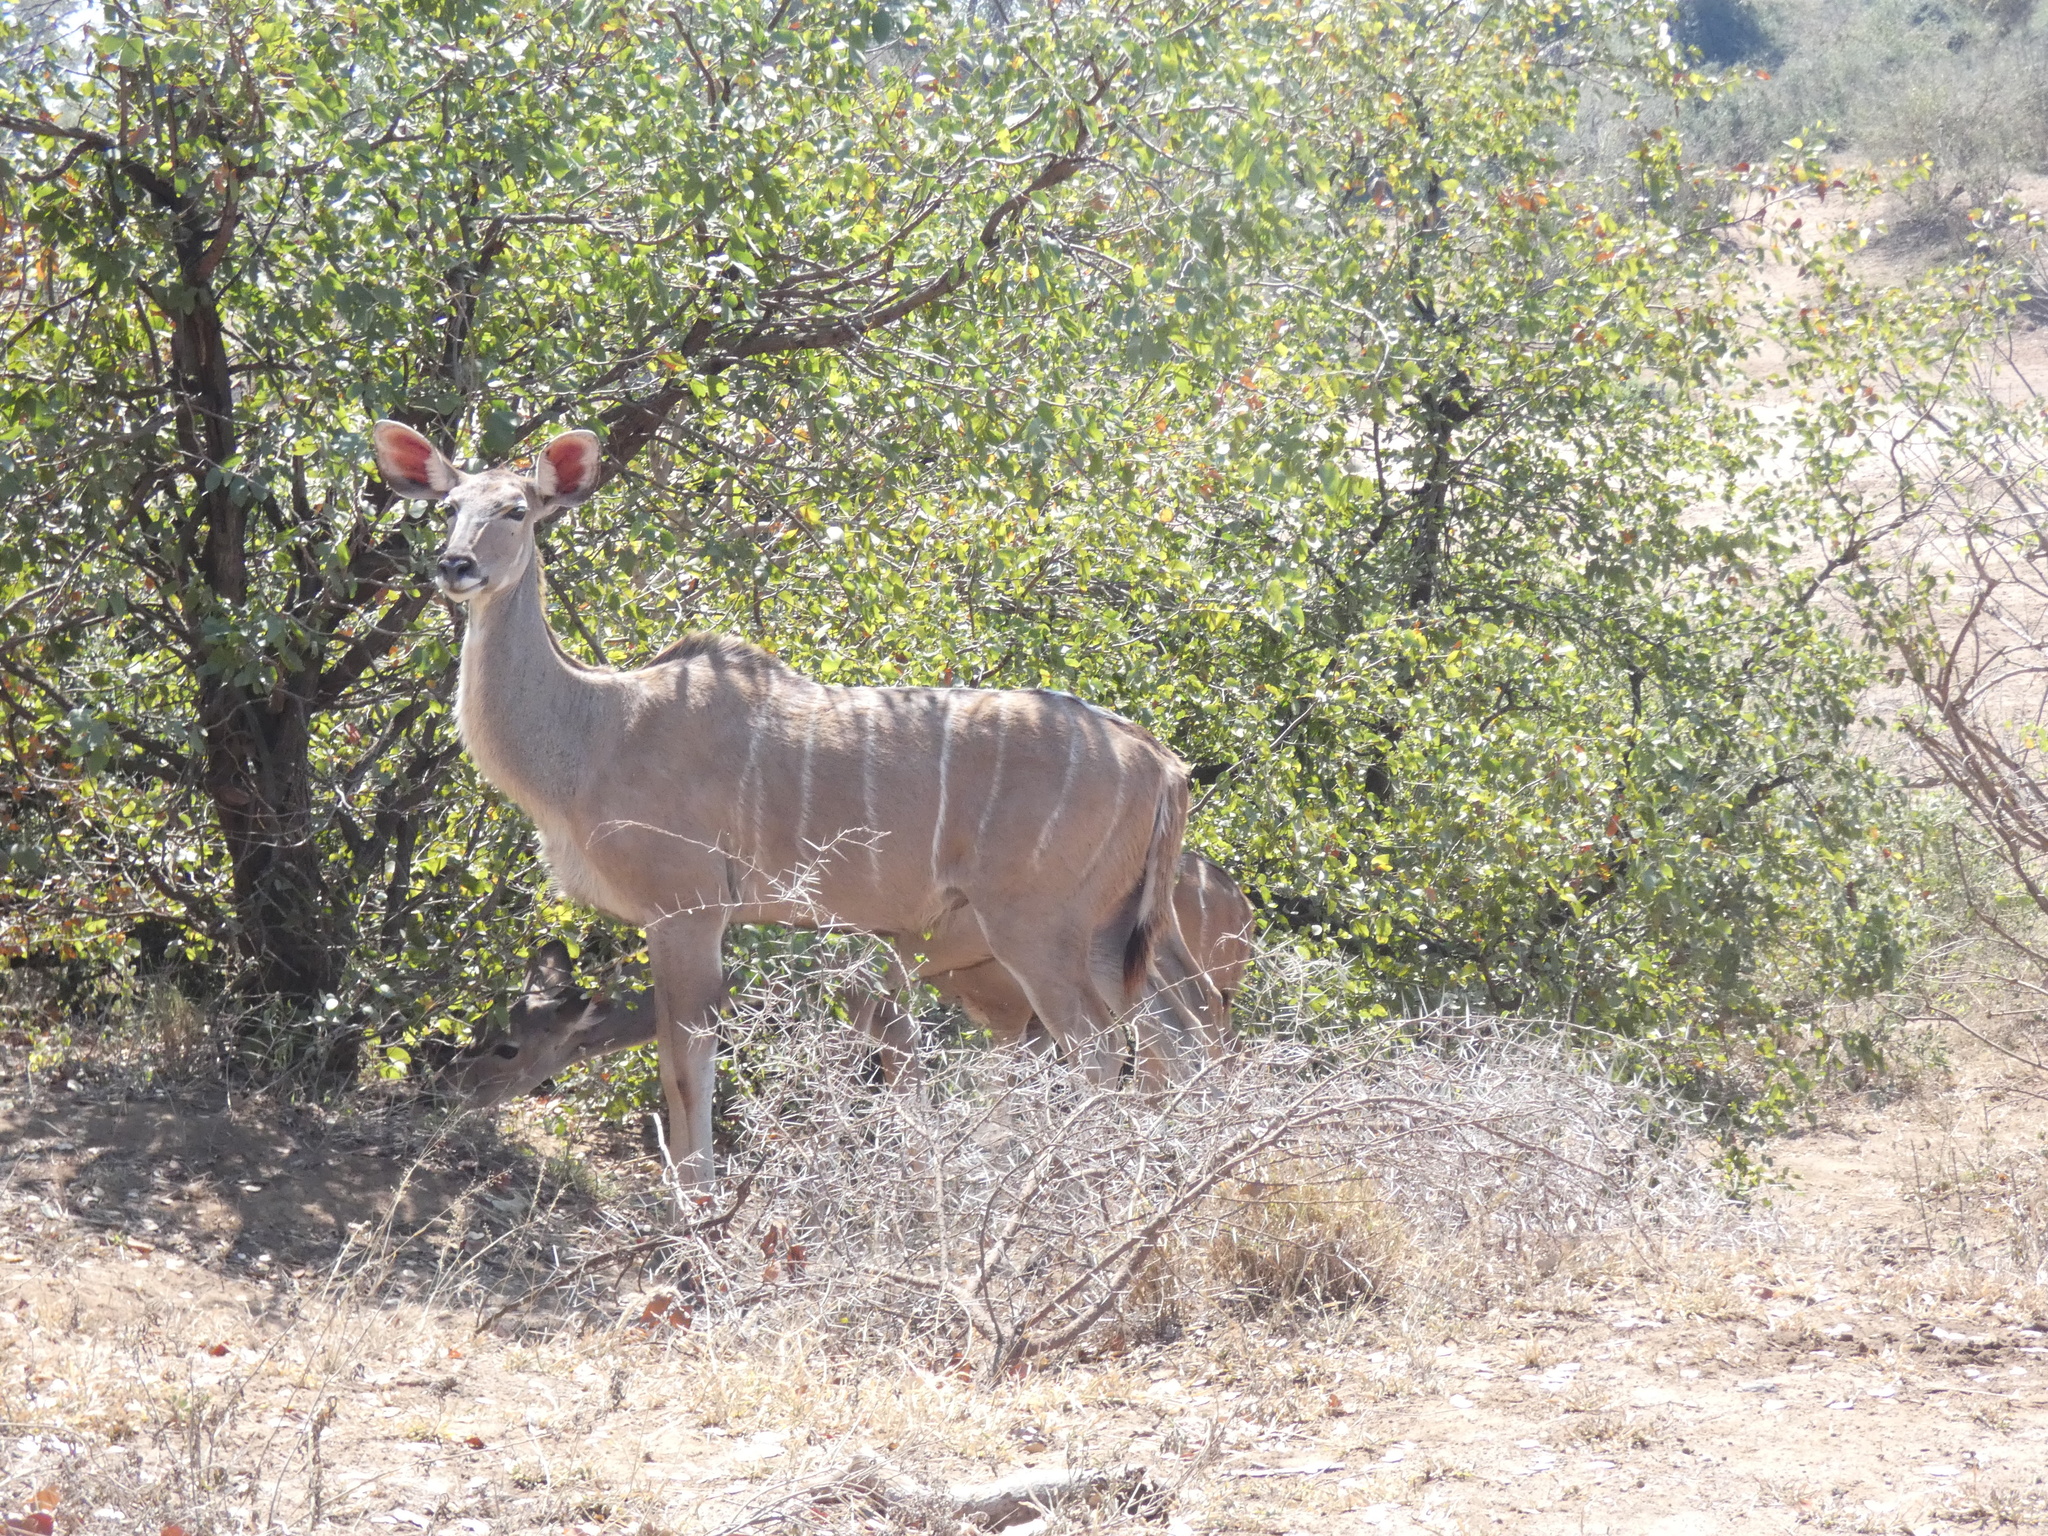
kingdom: Animalia
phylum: Chordata
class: Mammalia
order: Artiodactyla
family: Bovidae
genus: Tragelaphus
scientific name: Tragelaphus strepsiceros
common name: Greater kudu
